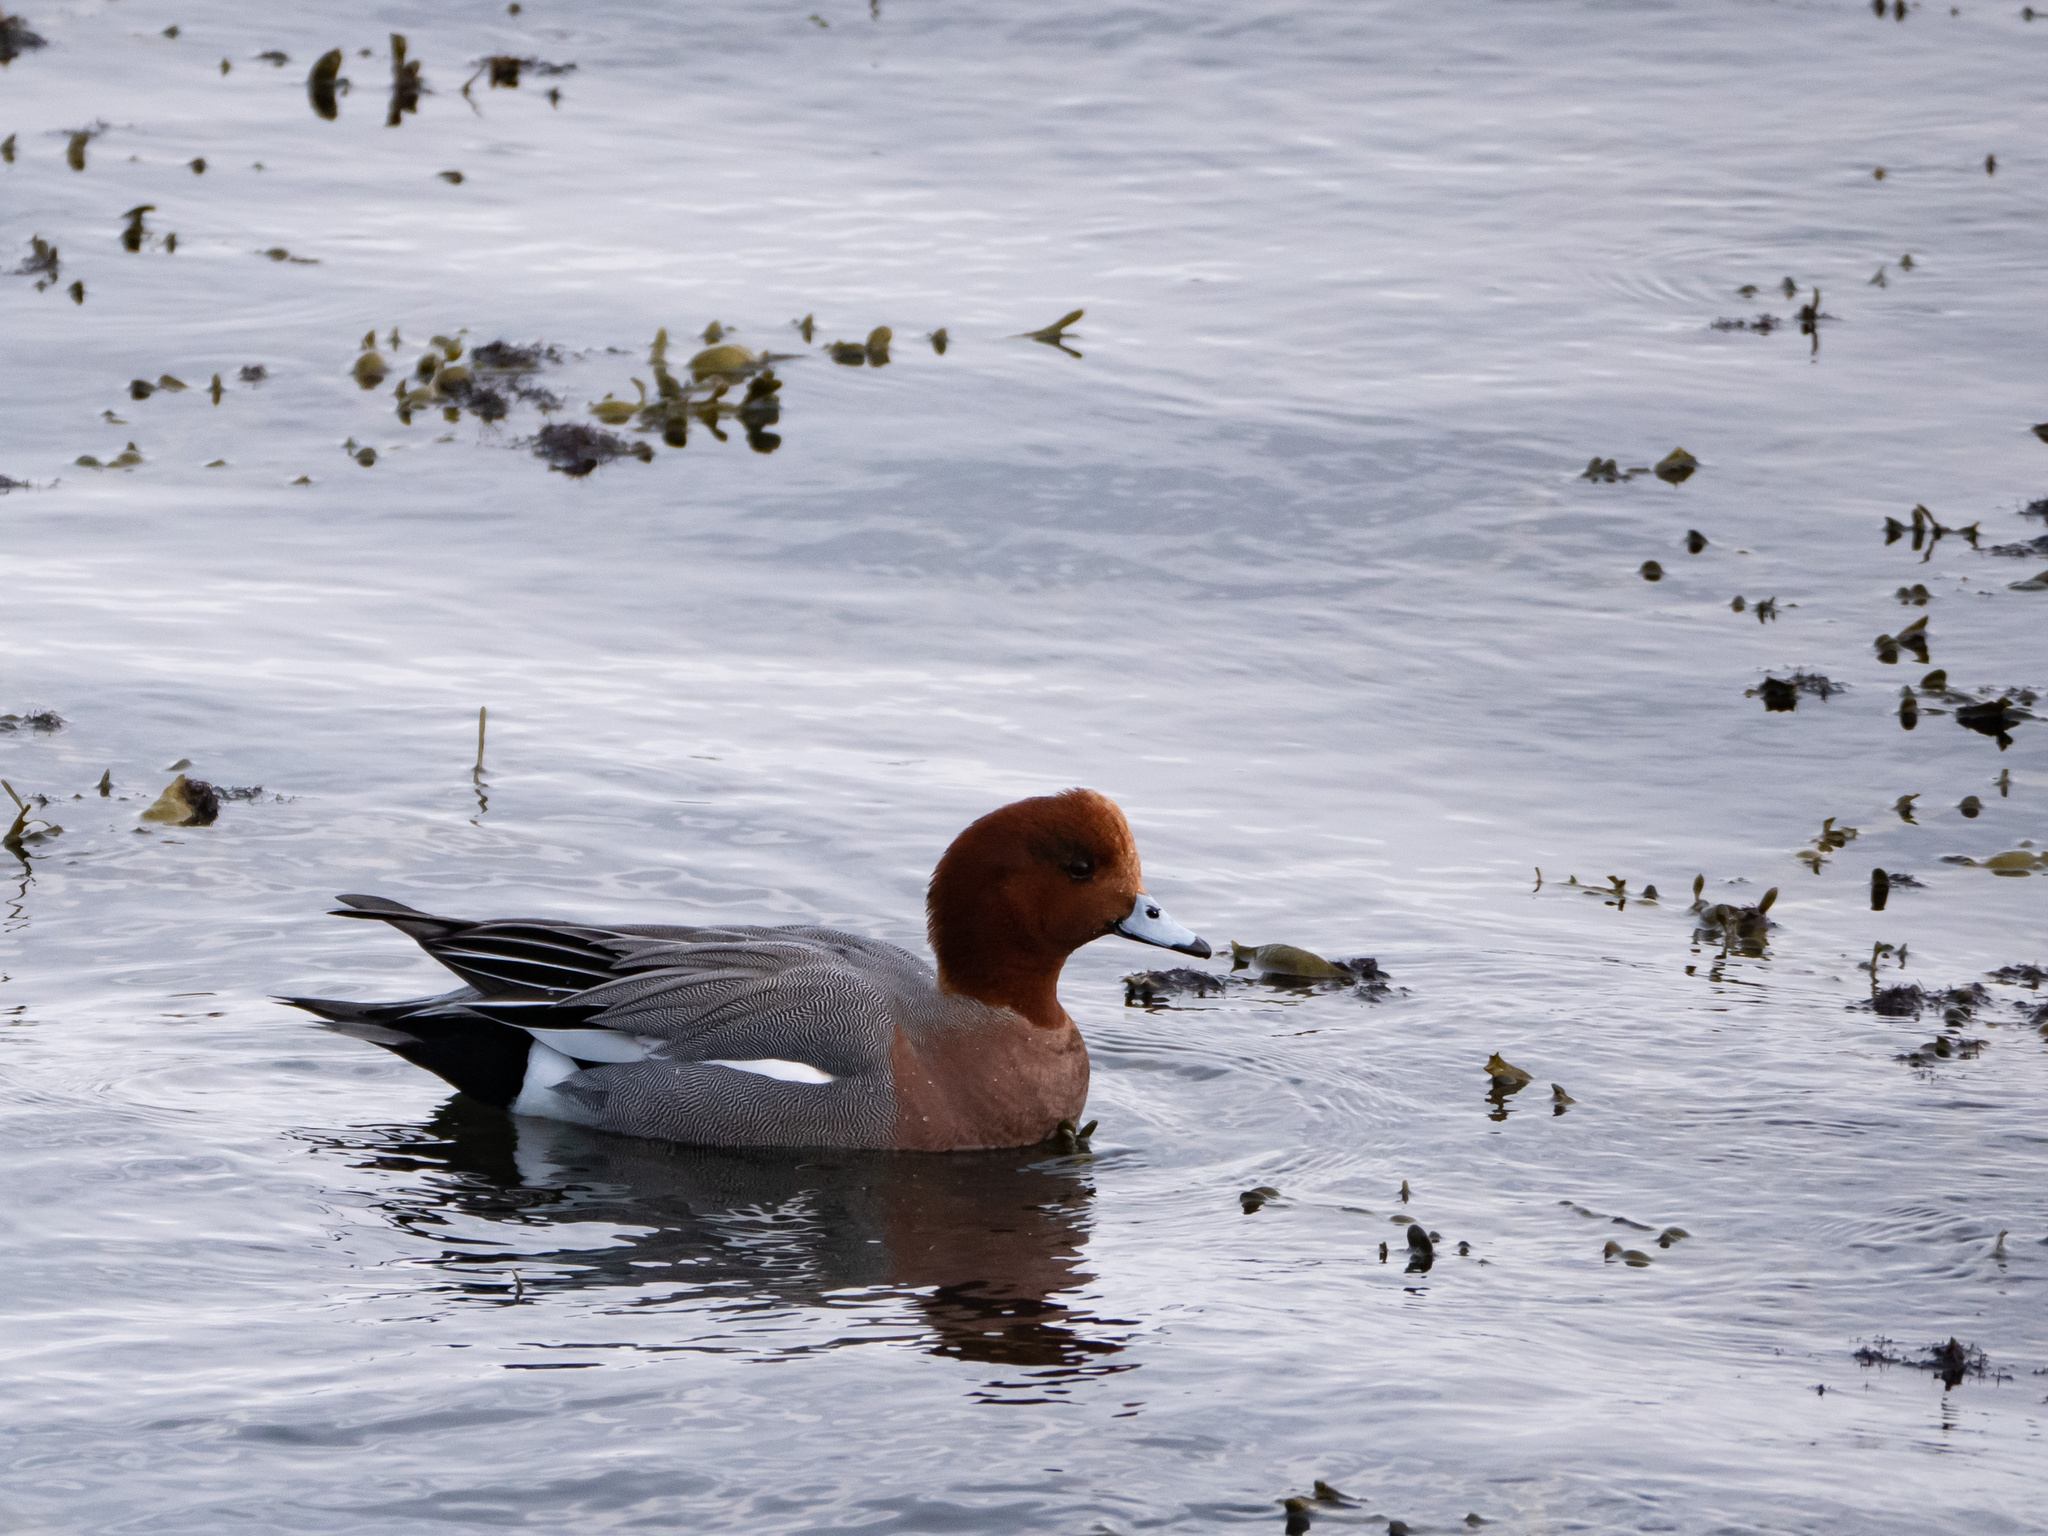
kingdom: Animalia
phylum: Chordata
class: Aves
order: Anseriformes
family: Anatidae
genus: Mareca
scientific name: Mareca penelope
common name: Eurasian wigeon
